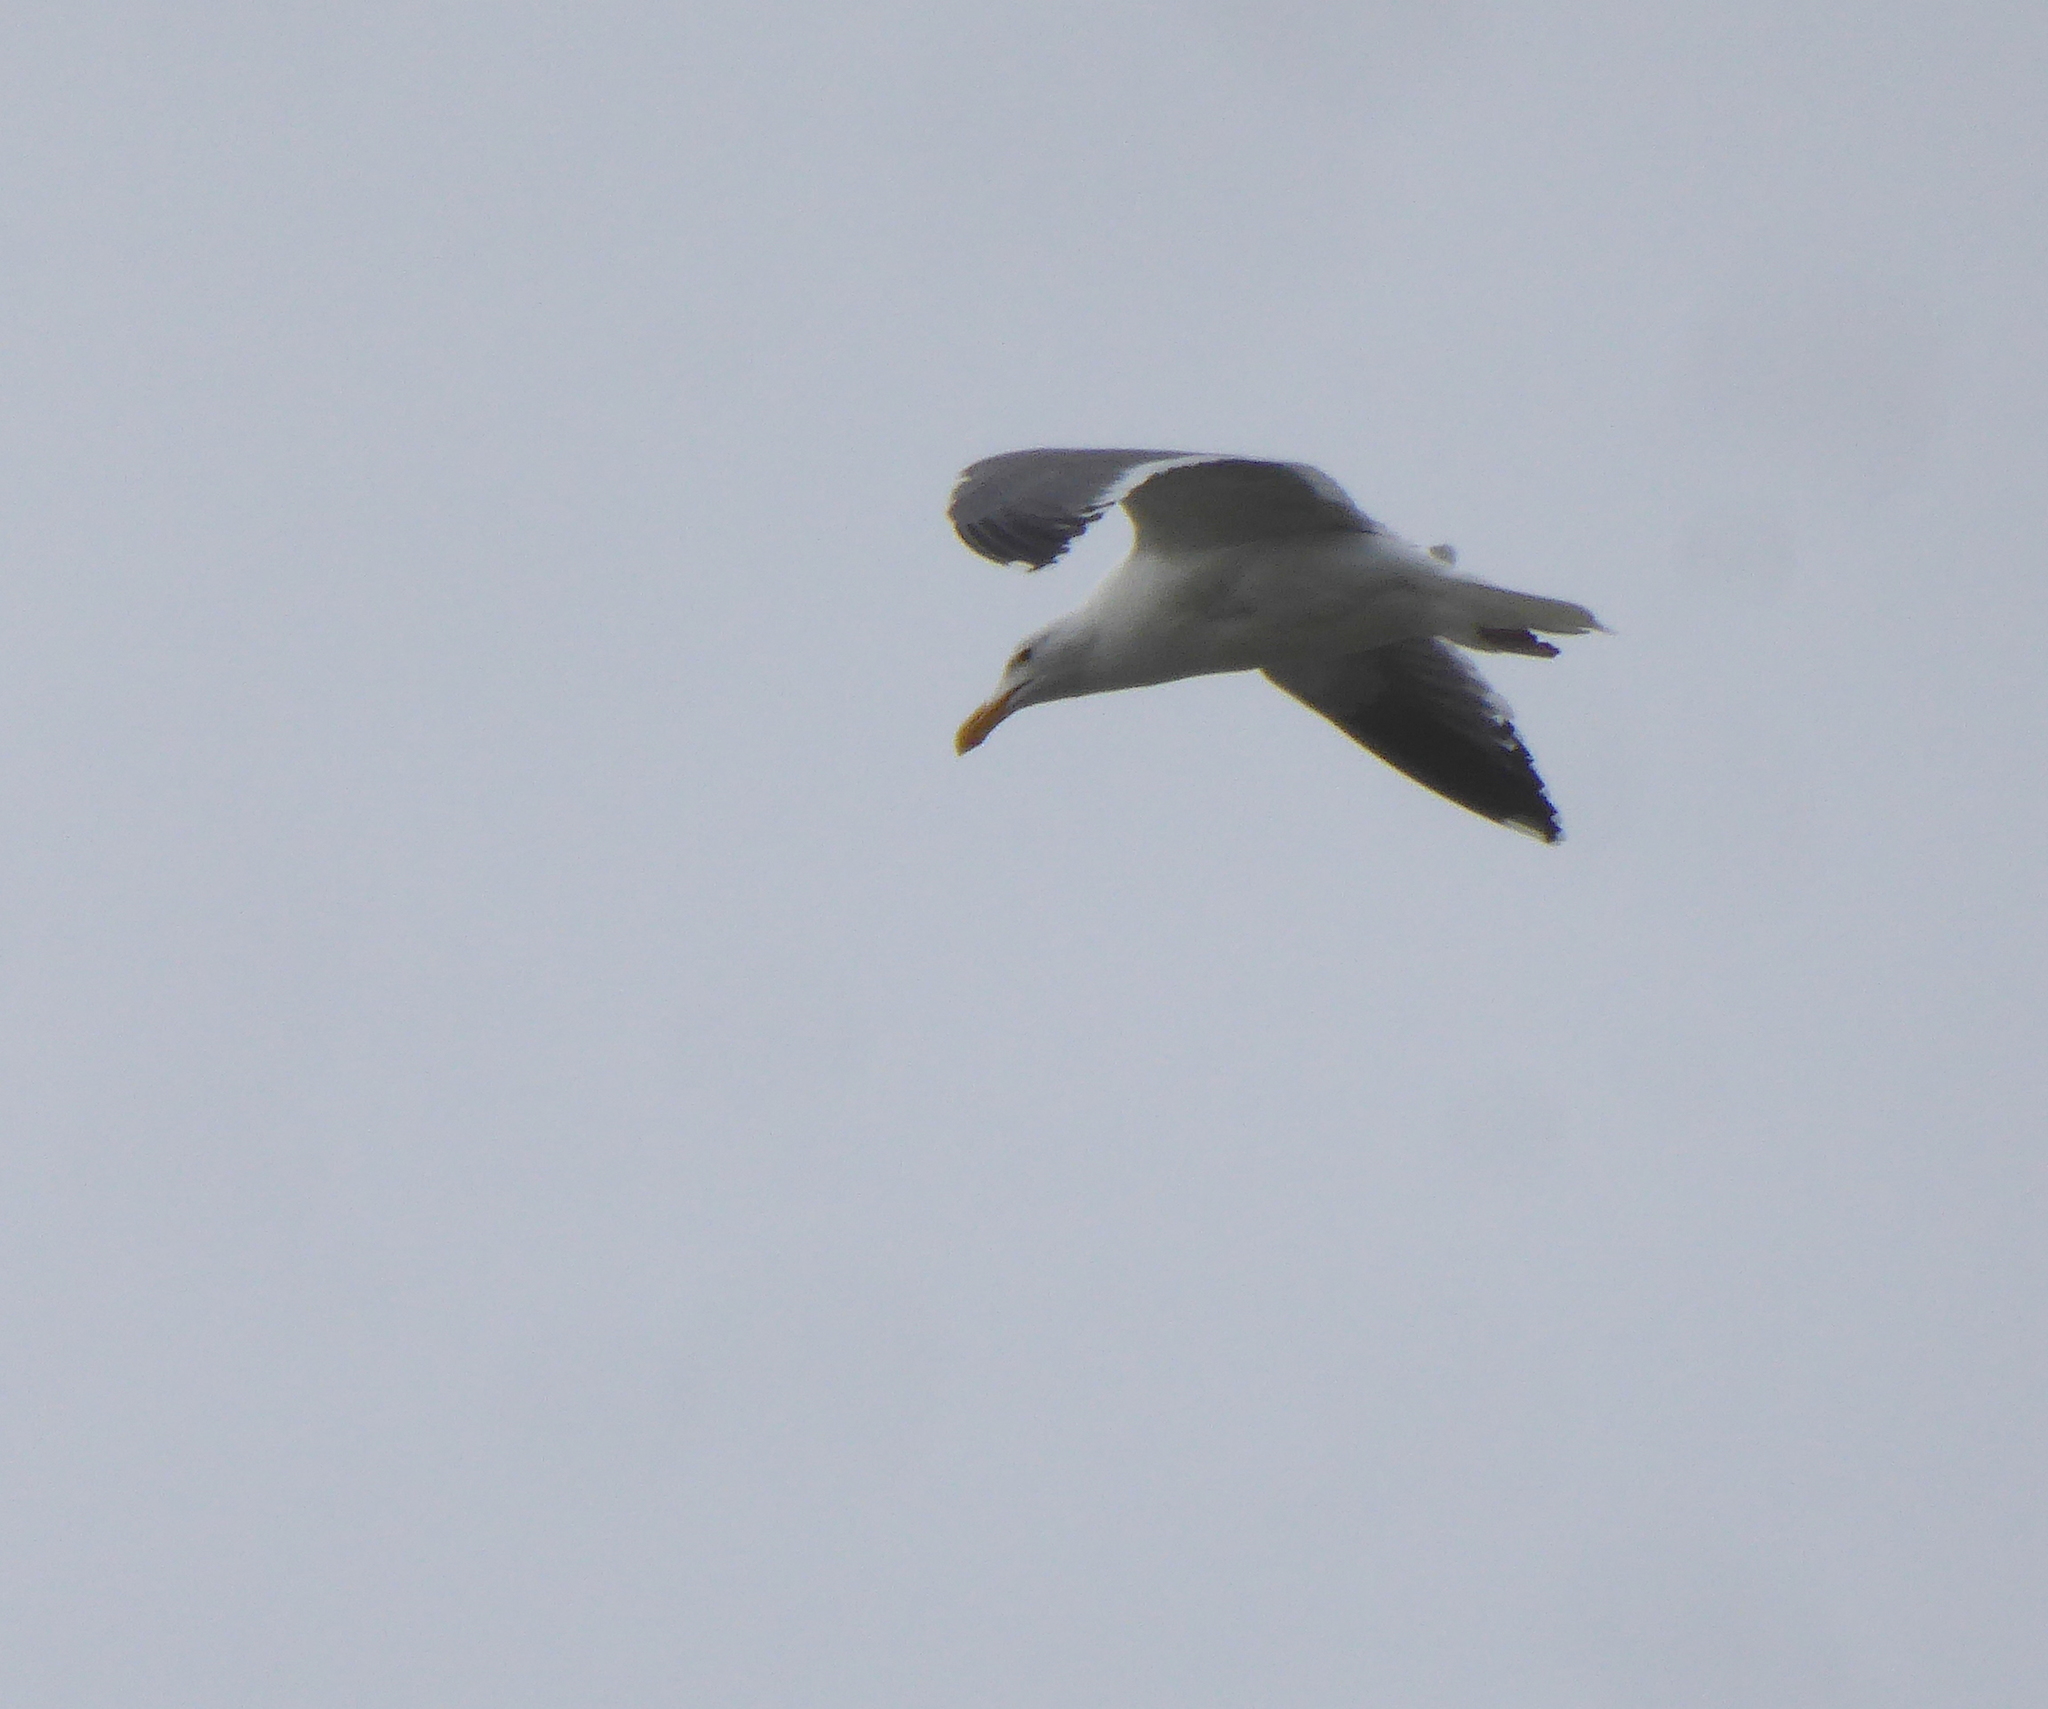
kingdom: Animalia
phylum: Chordata
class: Aves
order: Charadriiformes
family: Laridae
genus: Larus
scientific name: Larus occidentalis
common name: Western gull
